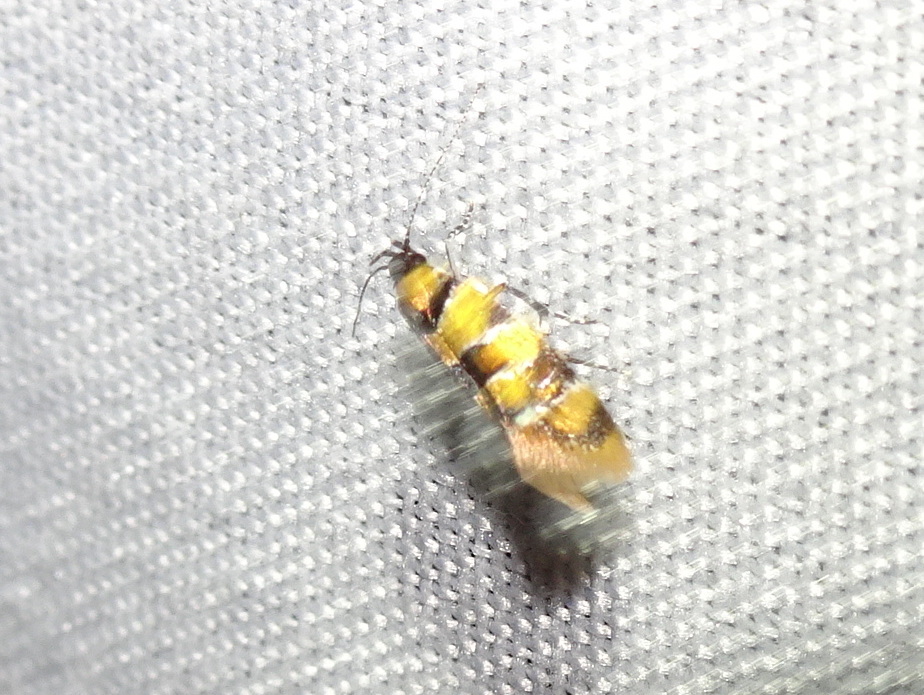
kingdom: Animalia
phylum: Arthropoda
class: Insecta
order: Lepidoptera
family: Oecophoridae
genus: Decantha
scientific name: Decantha borkhausenii
